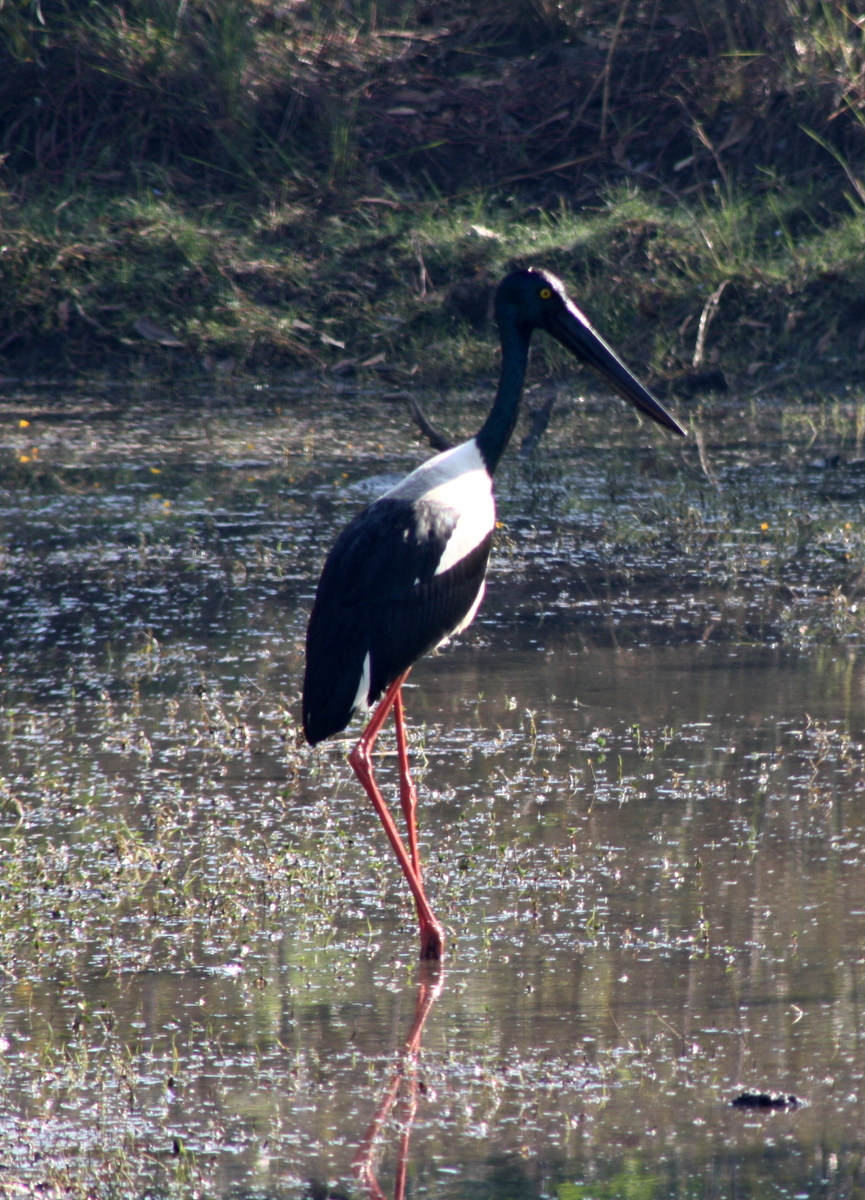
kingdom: Animalia
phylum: Chordata
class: Aves
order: Ciconiiformes
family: Ciconiidae
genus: Ephippiorhynchus
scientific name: Ephippiorhynchus asiaticus
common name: Black-necked stork
